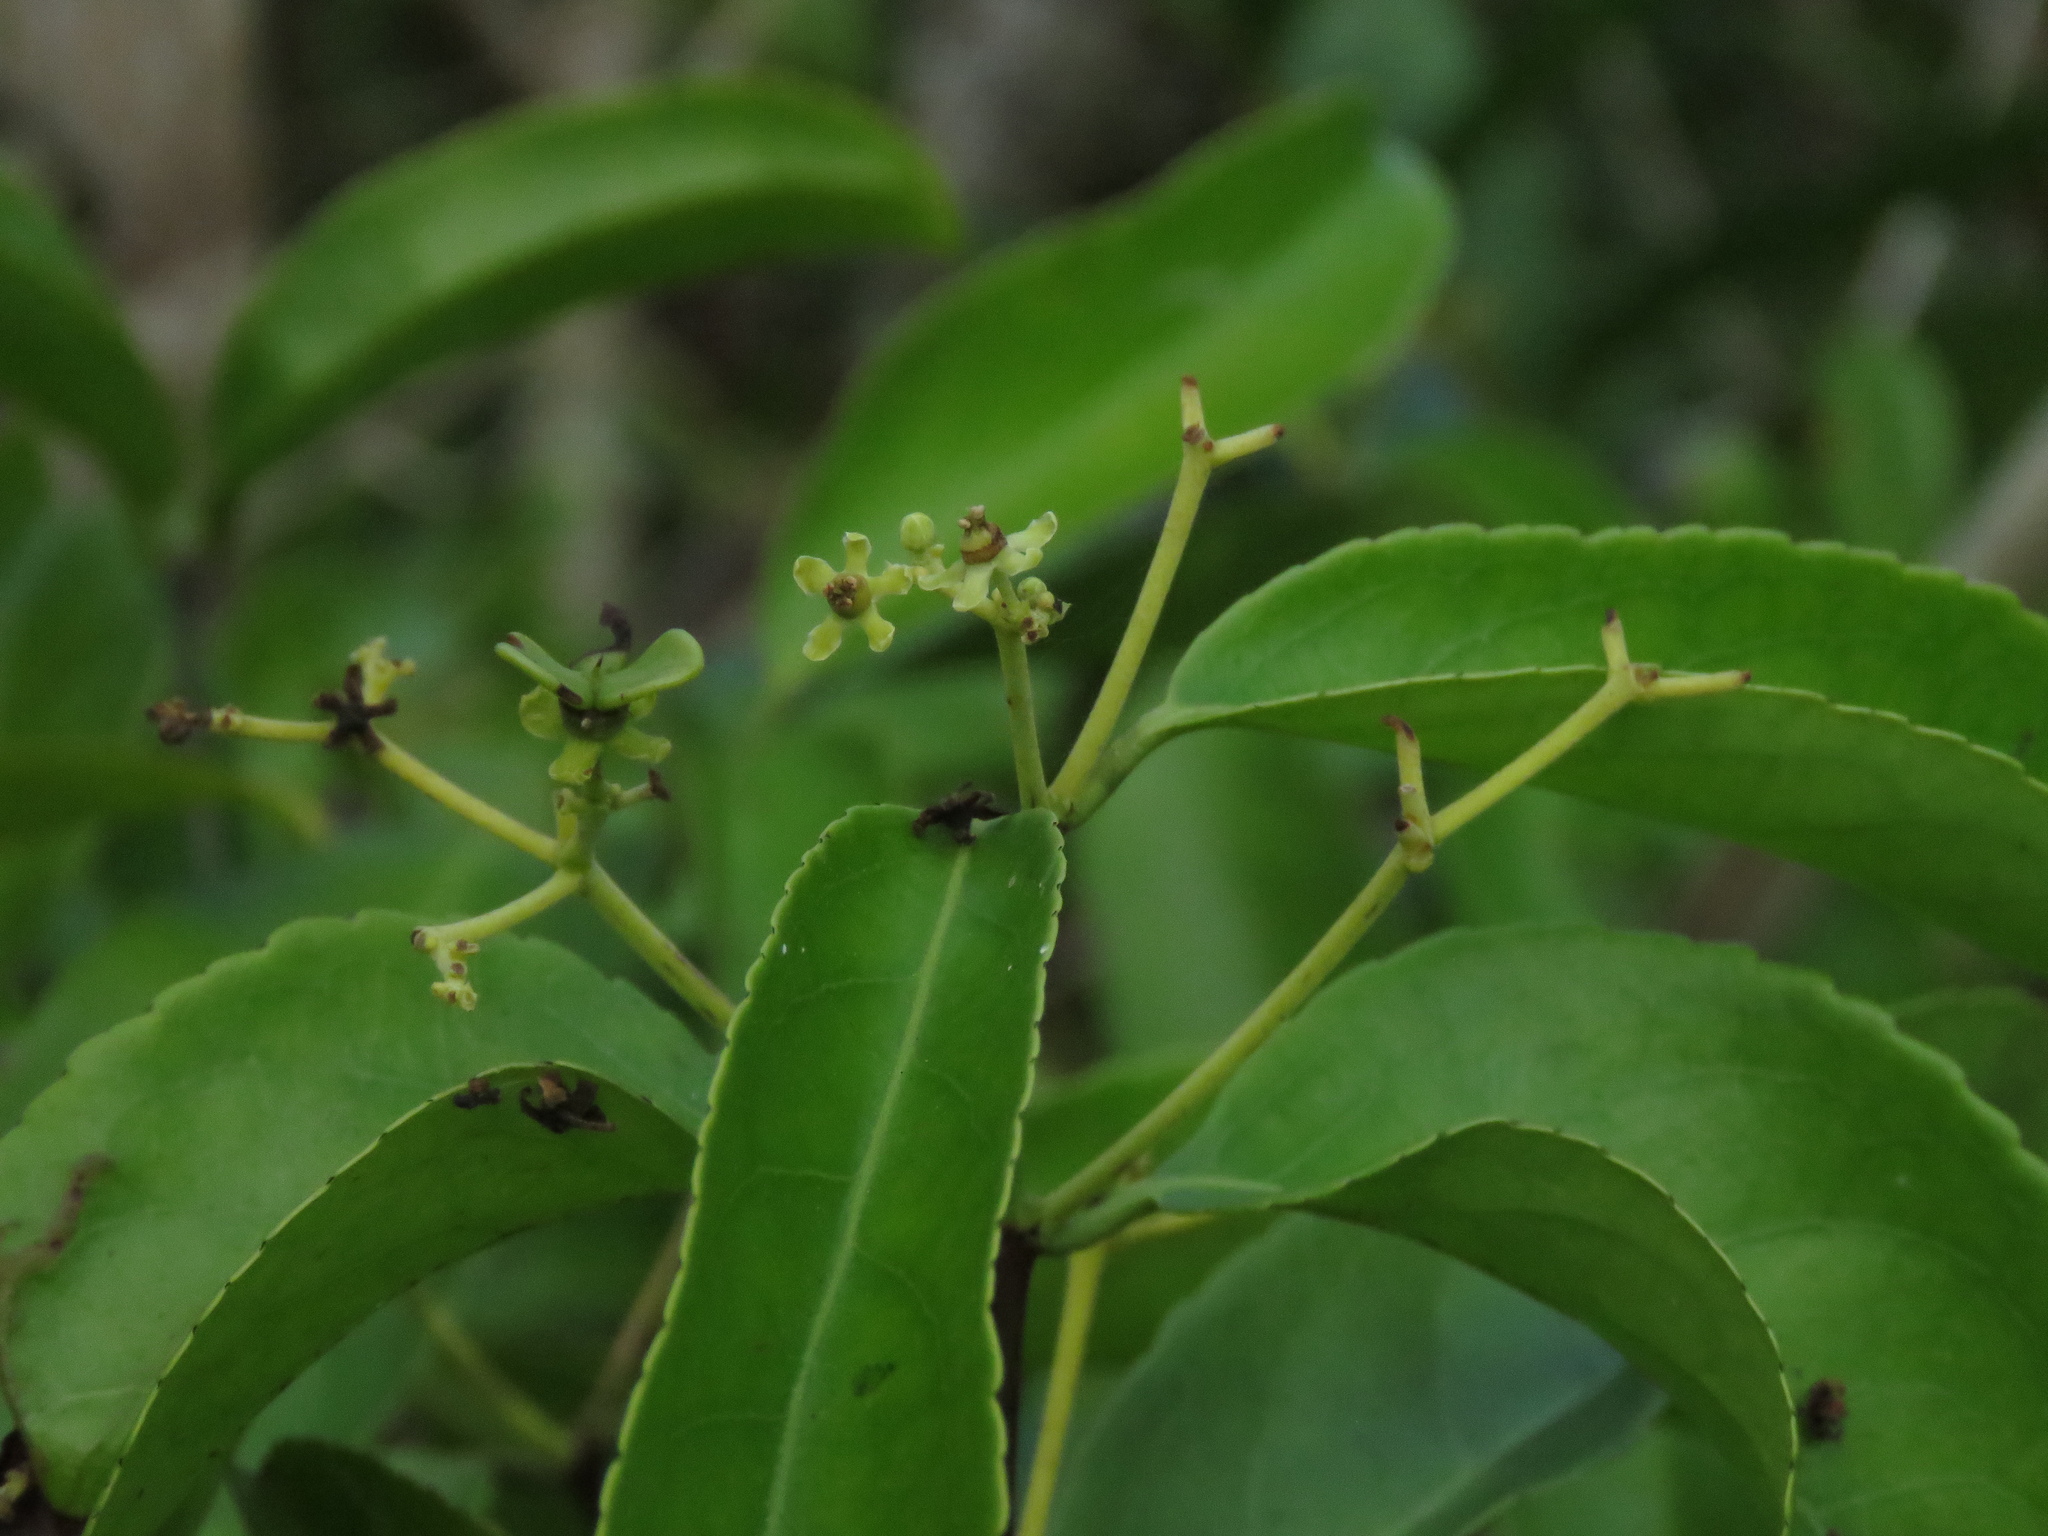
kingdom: Plantae
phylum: Tracheophyta
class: Magnoliopsida
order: Celastrales
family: Celastraceae
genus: Hippocratea
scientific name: Hippocratea volubilis
